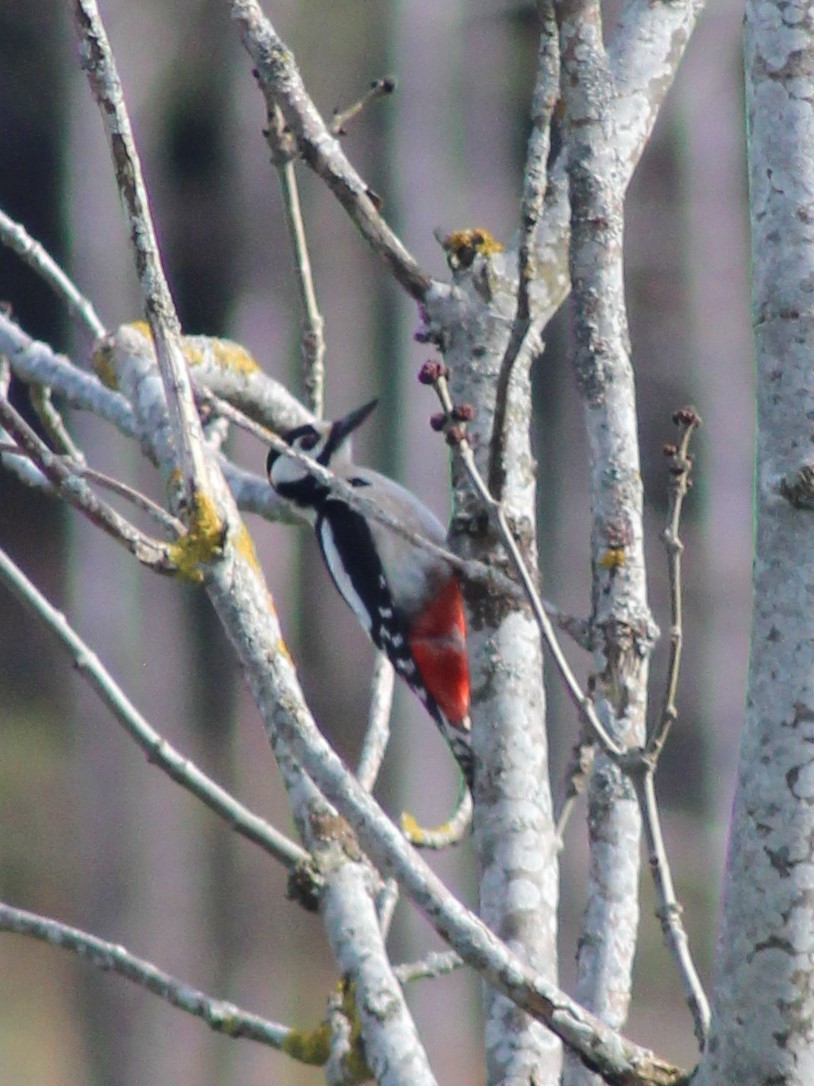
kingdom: Animalia
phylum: Chordata
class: Aves
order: Piciformes
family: Picidae
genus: Dendrocopos
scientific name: Dendrocopos major
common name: Great spotted woodpecker
